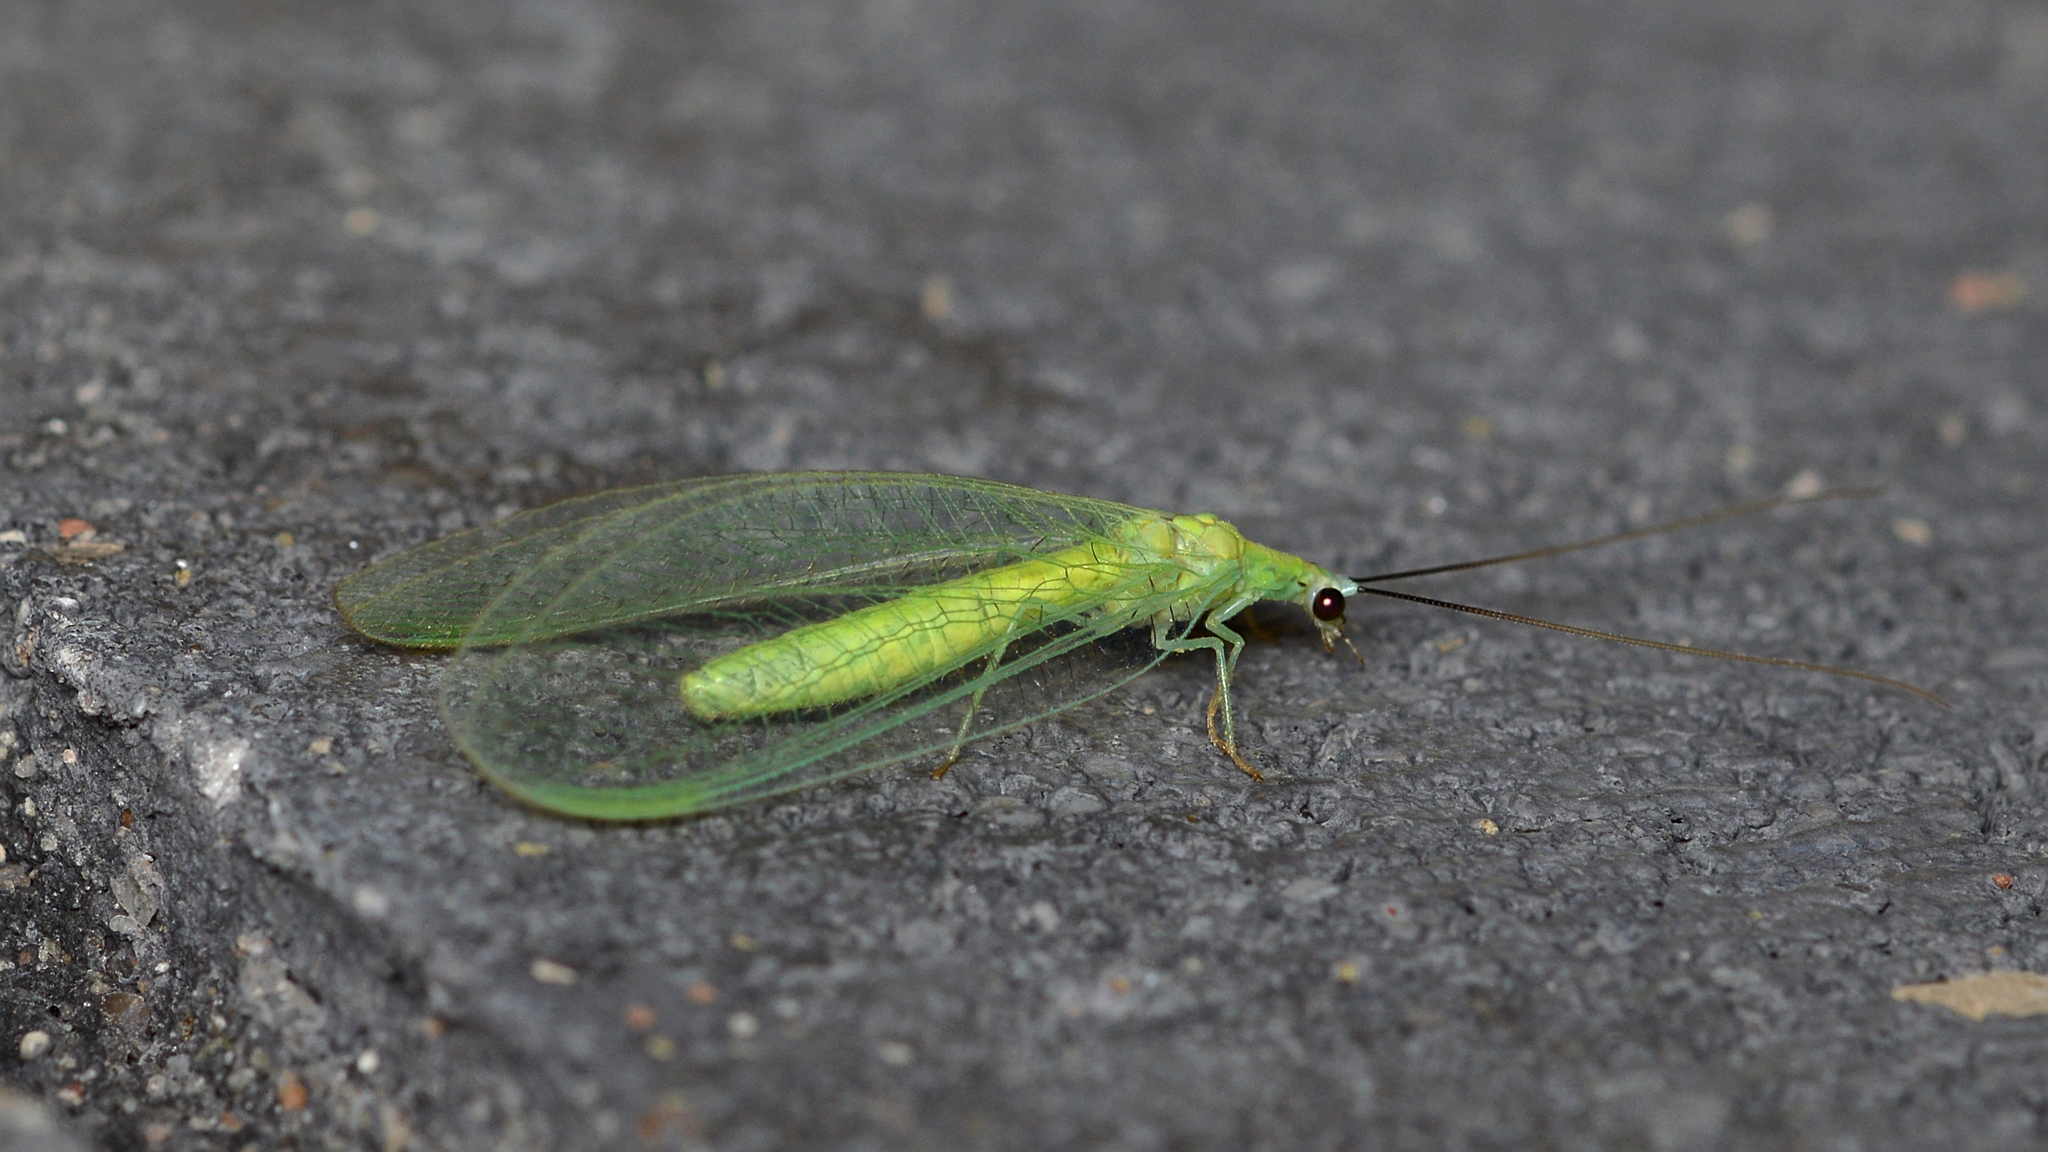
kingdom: Animalia
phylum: Arthropoda
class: Insecta
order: Neuroptera
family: Chrysopidae
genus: Chrysopa
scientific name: Chrysopa nigricornis
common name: Black-horned green lacewing
